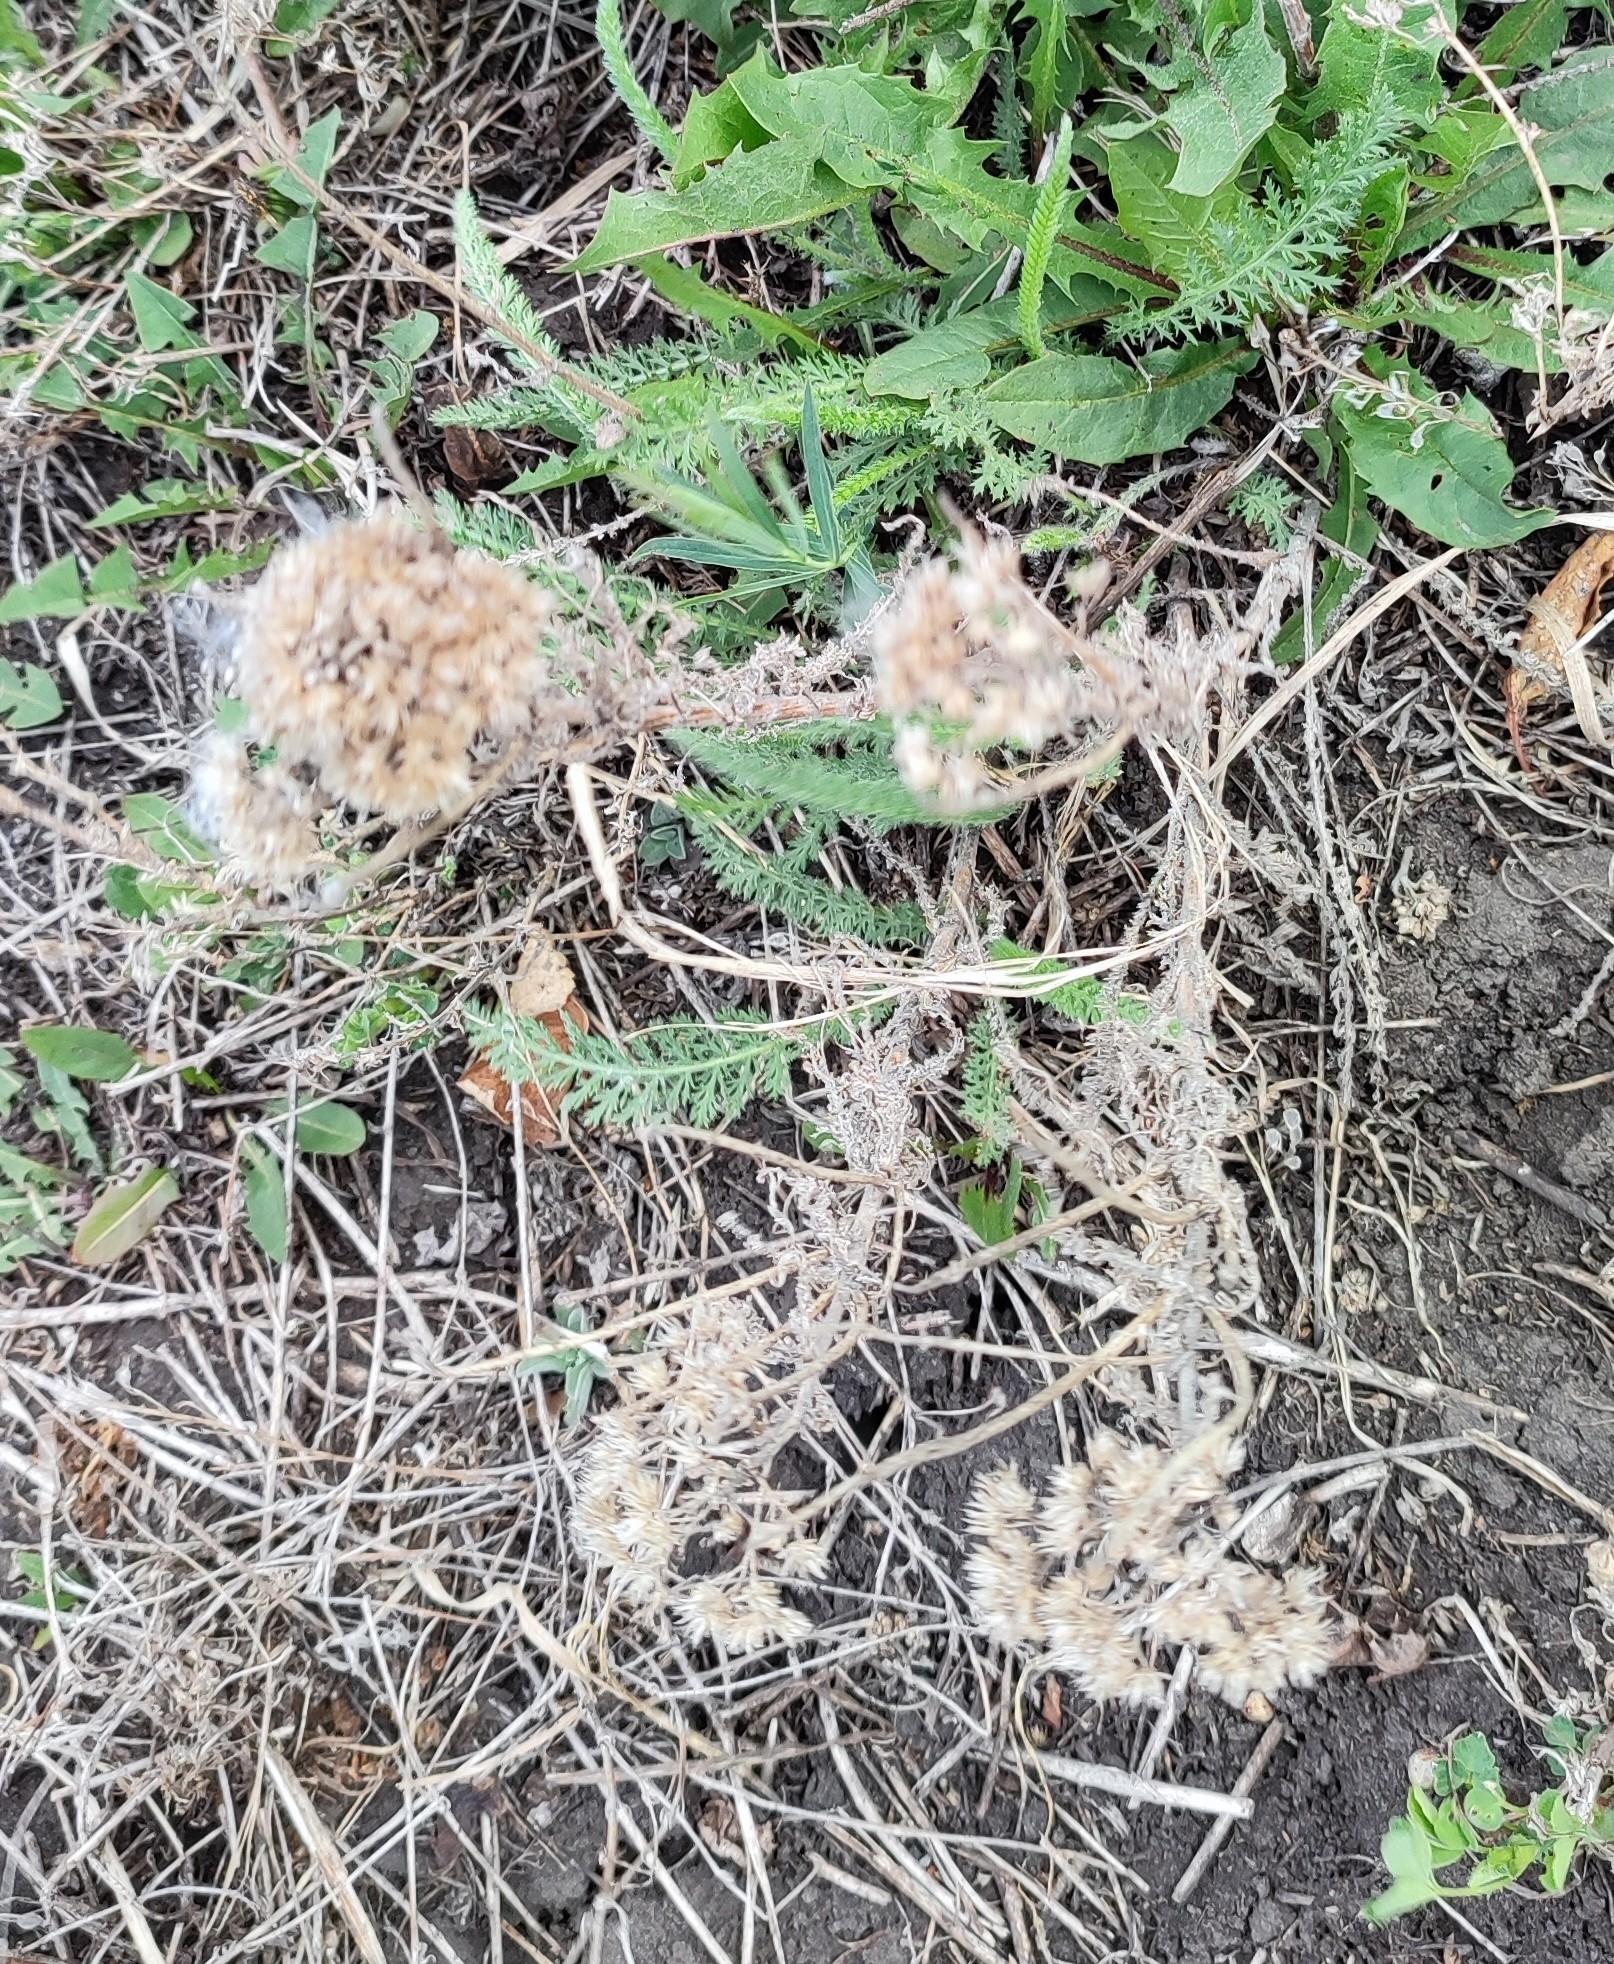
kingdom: Plantae
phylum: Tracheophyta
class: Magnoliopsida
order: Asterales
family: Asteraceae
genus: Achillea
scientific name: Achillea millefolium
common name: Yarrow
